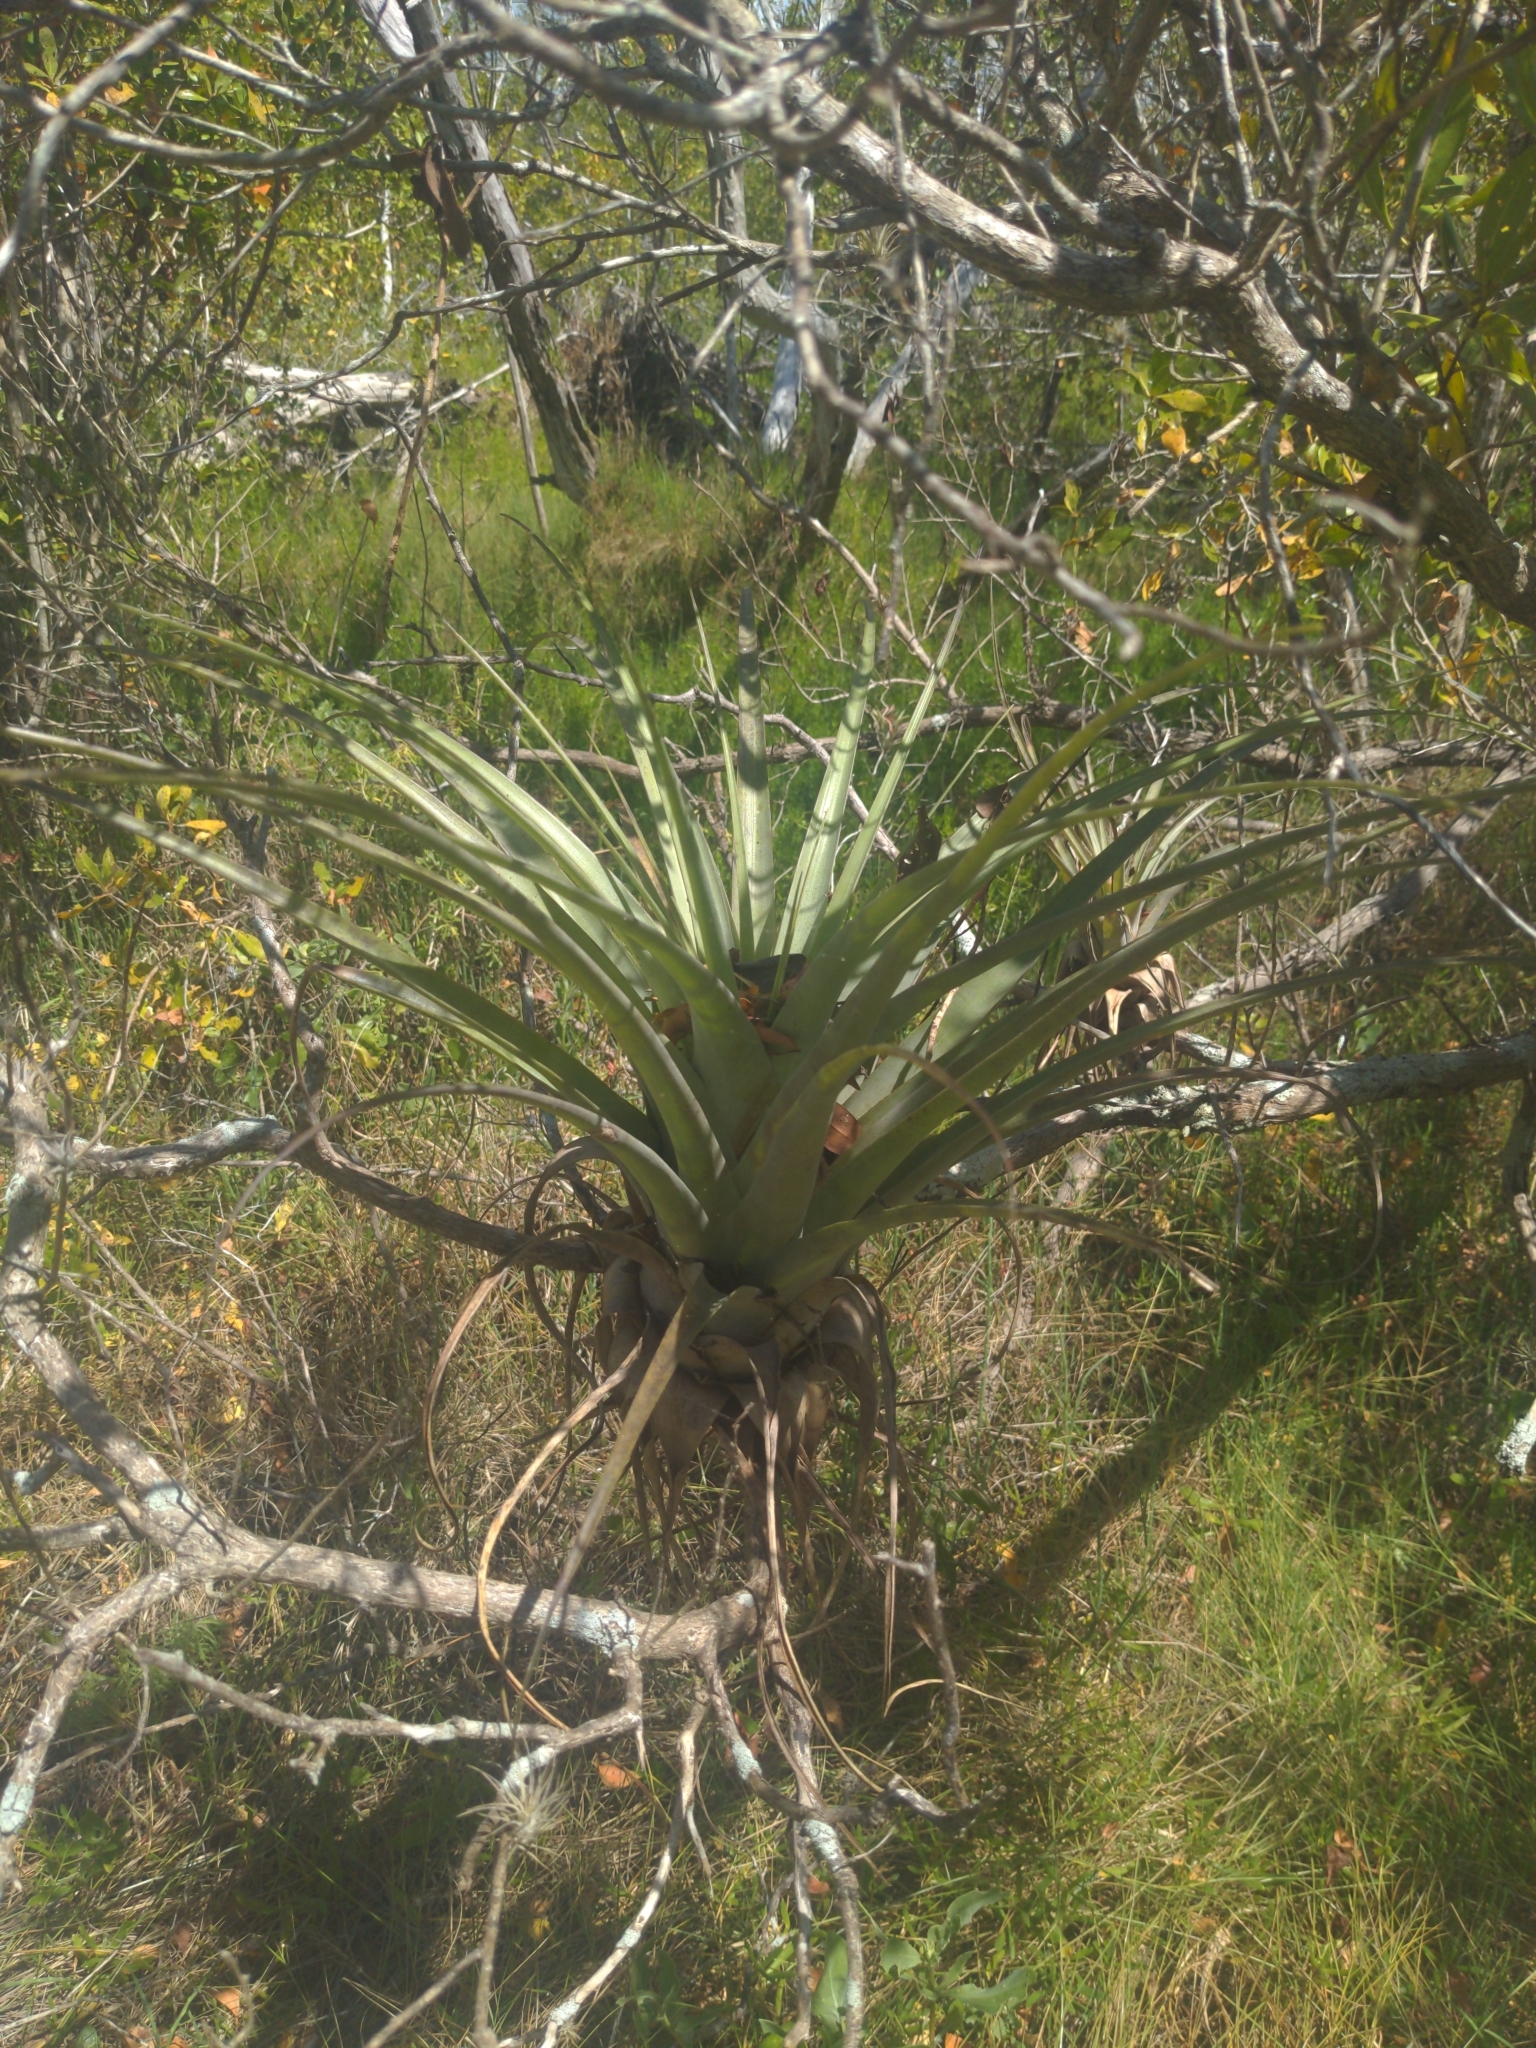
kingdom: Plantae
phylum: Tracheophyta
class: Liliopsida
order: Poales
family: Bromeliaceae
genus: Tillandsia
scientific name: Tillandsia utriculata
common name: Wild pine
